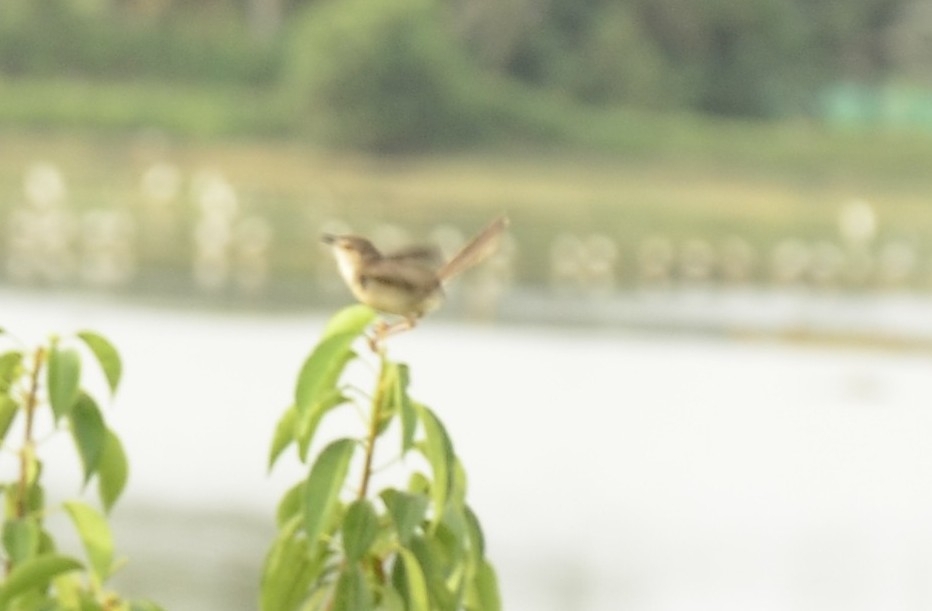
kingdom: Animalia
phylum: Chordata
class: Aves
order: Passeriformes
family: Cisticolidae
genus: Prinia
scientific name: Prinia inornata
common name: Plain prinia
